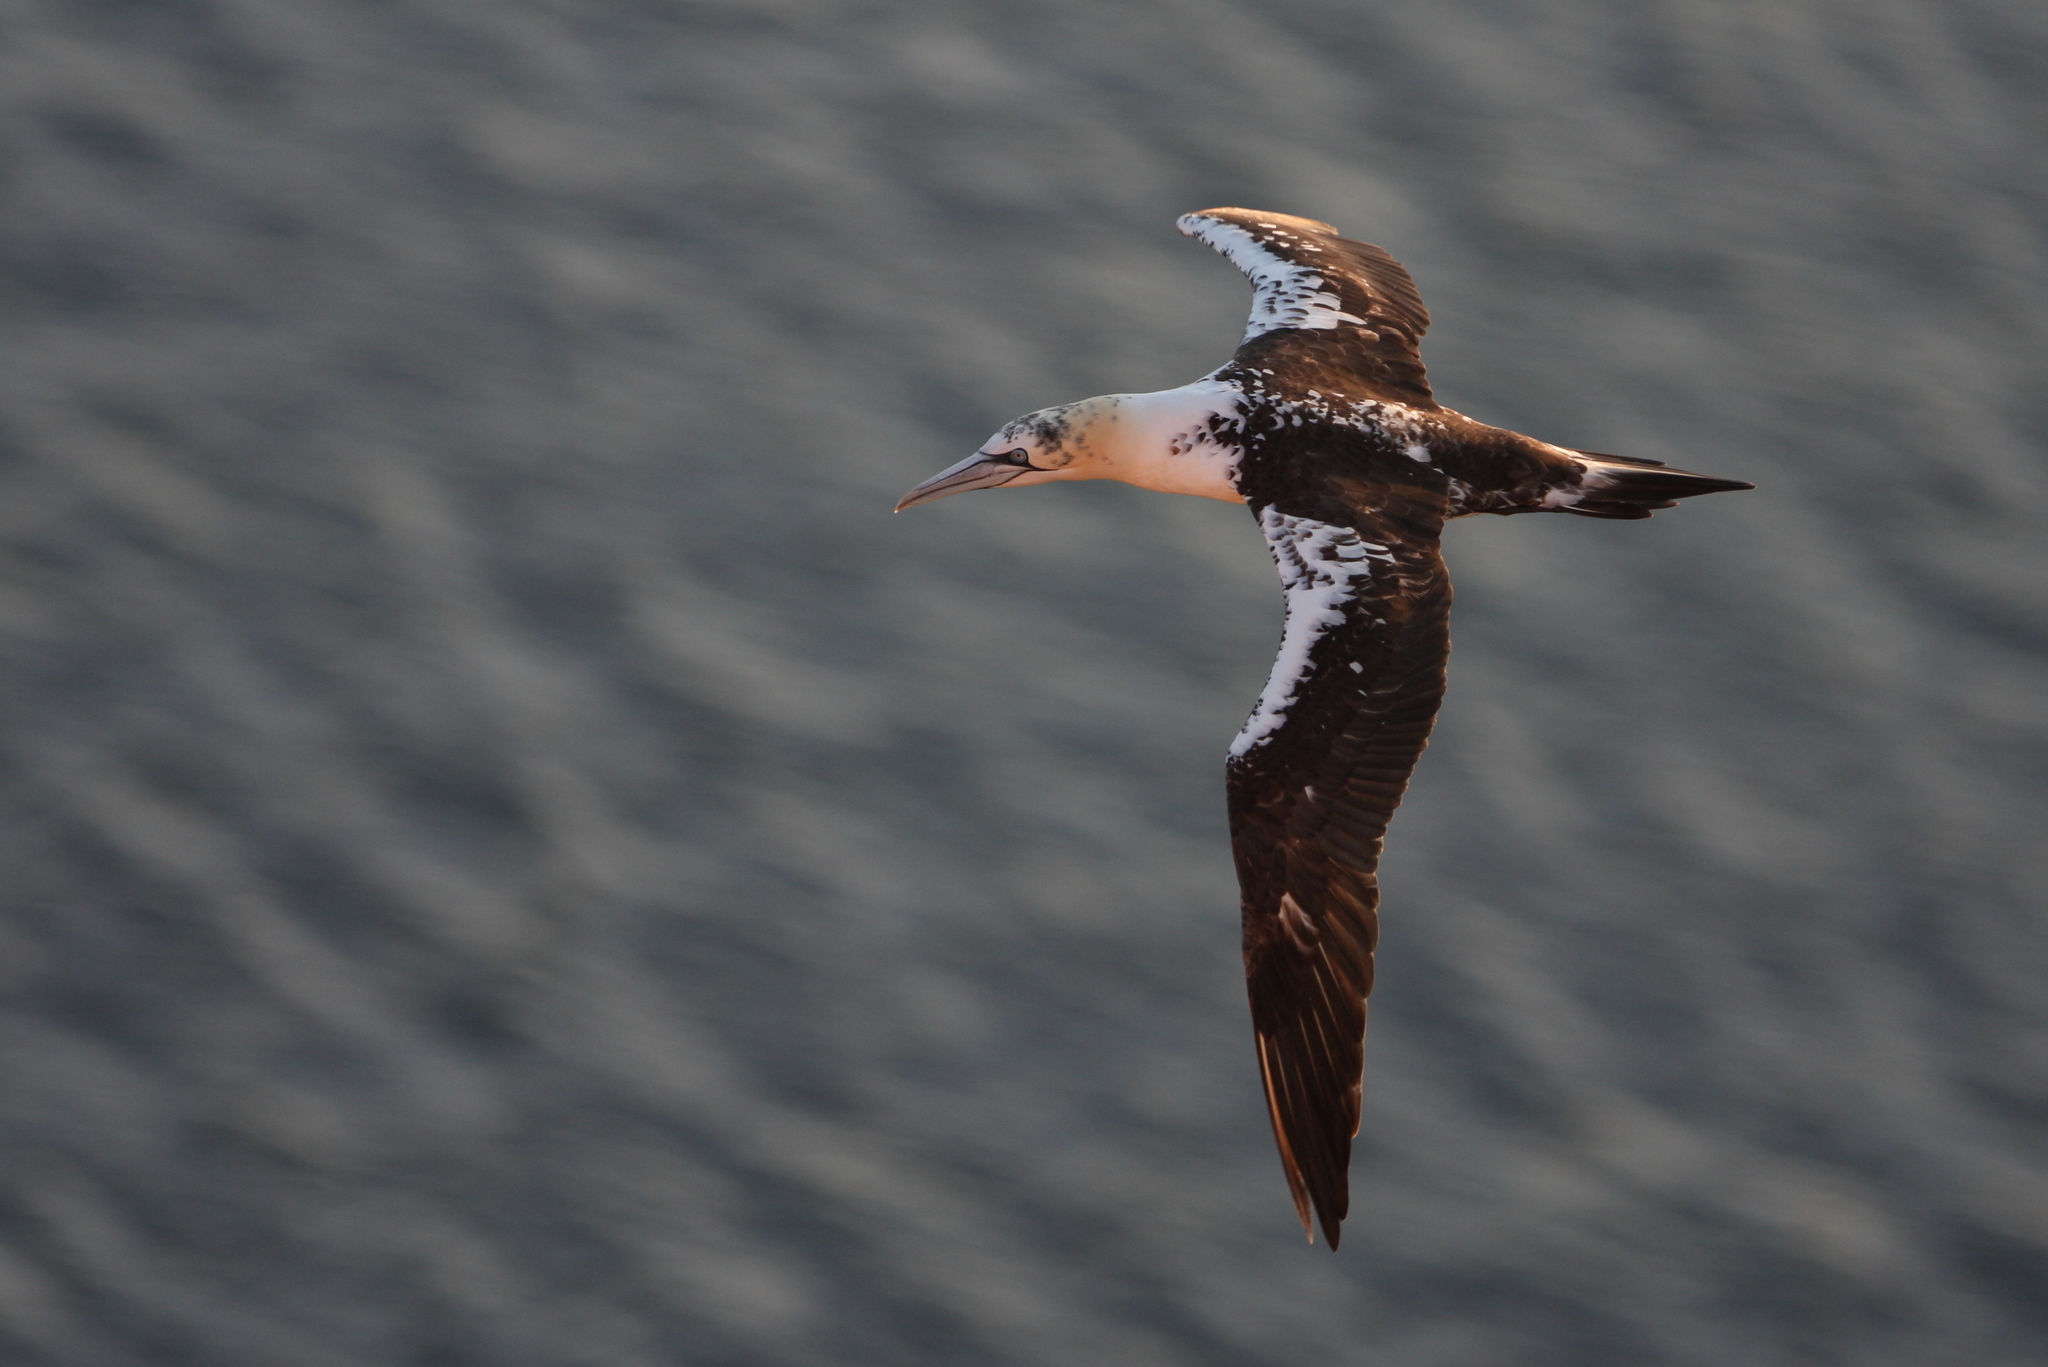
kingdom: Animalia
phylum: Chordata
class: Aves
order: Suliformes
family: Sulidae
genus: Morus
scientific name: Morus bassanus
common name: Northern gannet
